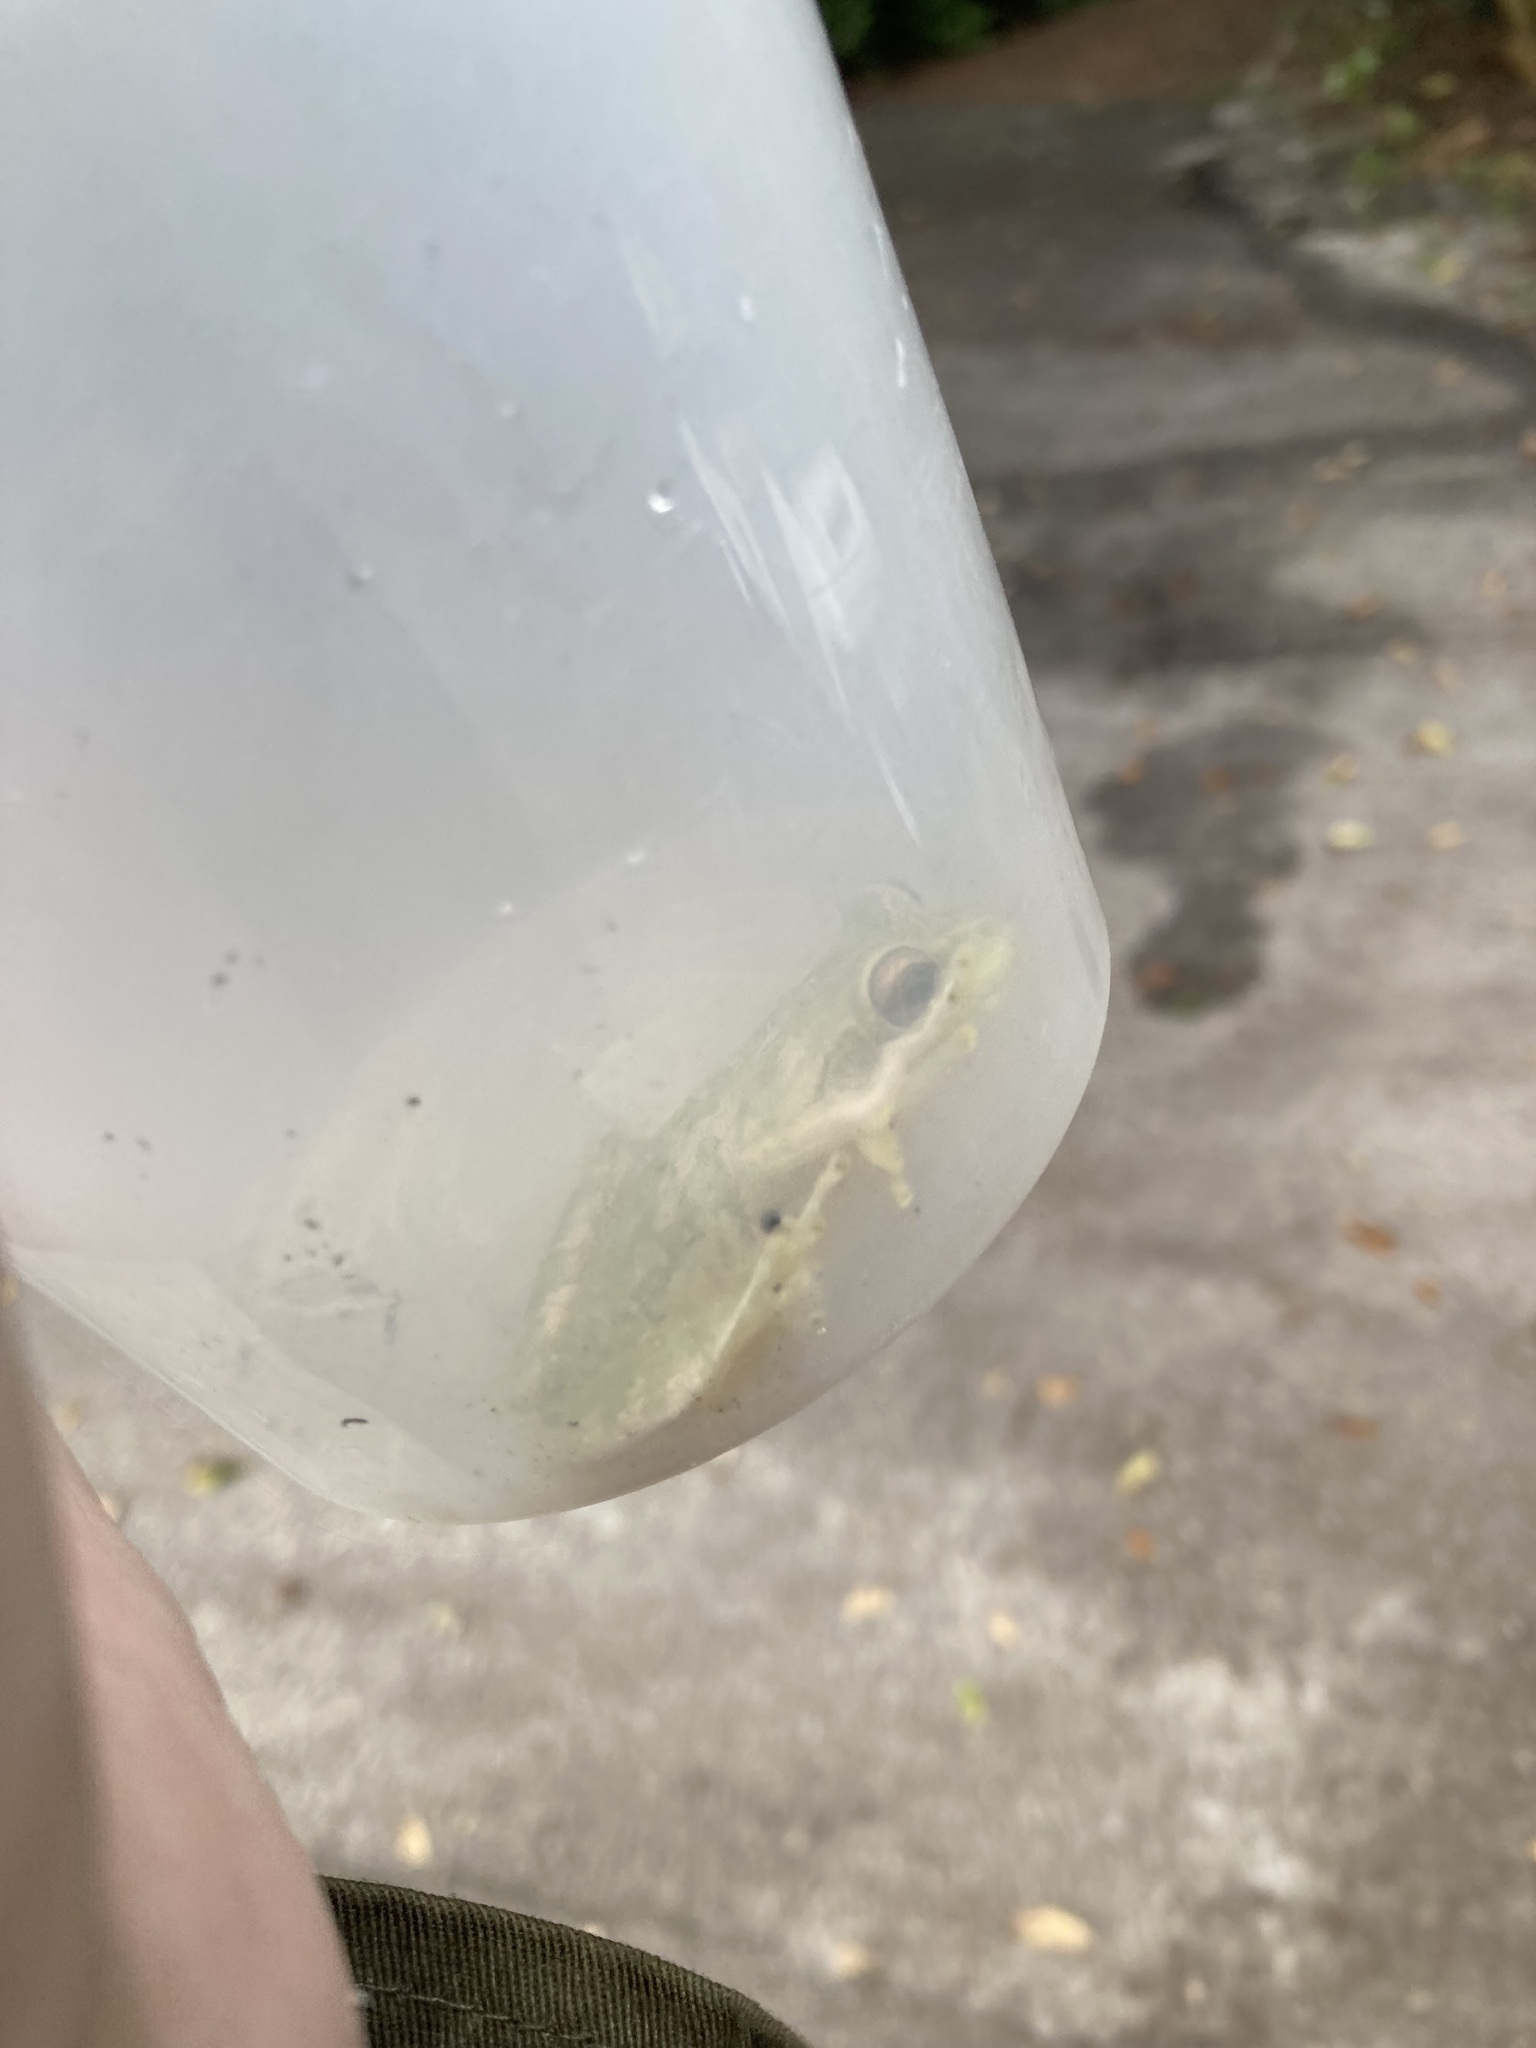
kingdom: Animalia
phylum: Chordata
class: Amphibia
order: Anura
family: Hylidae
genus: Osteopilus
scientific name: Osteopilus septentrionalis
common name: Cuban treefrog
